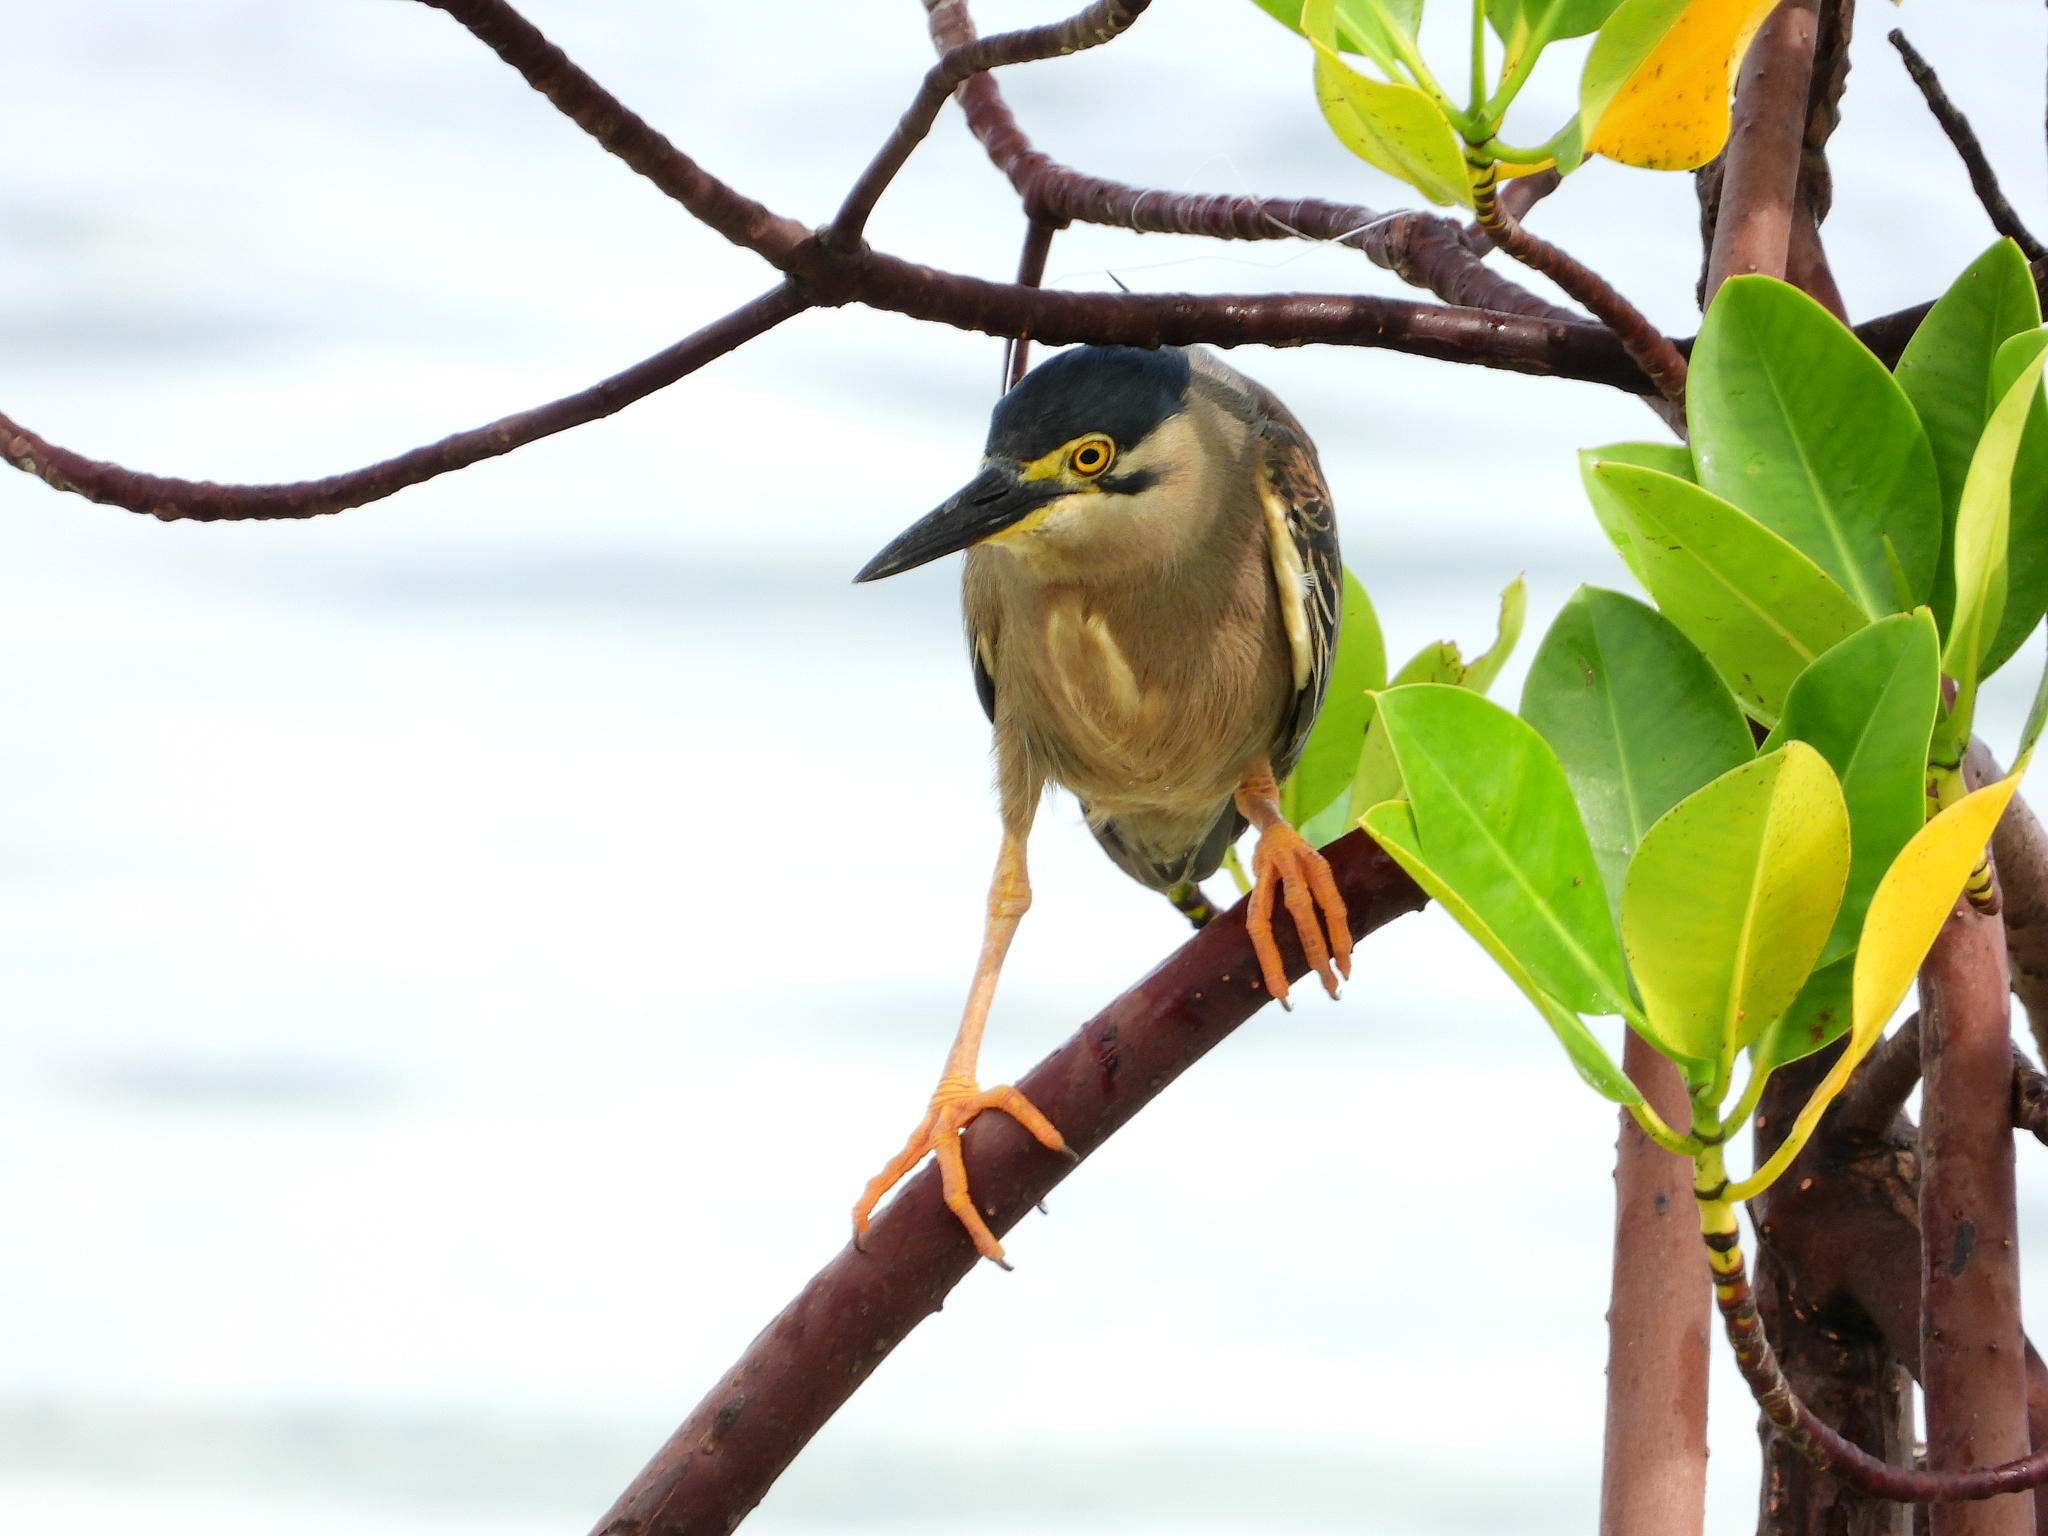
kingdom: Animalia
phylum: Chordata
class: Aves
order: Pelecaniformes
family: Ardeidae
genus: Butorides
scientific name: Butorides striata
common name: Striated heron
